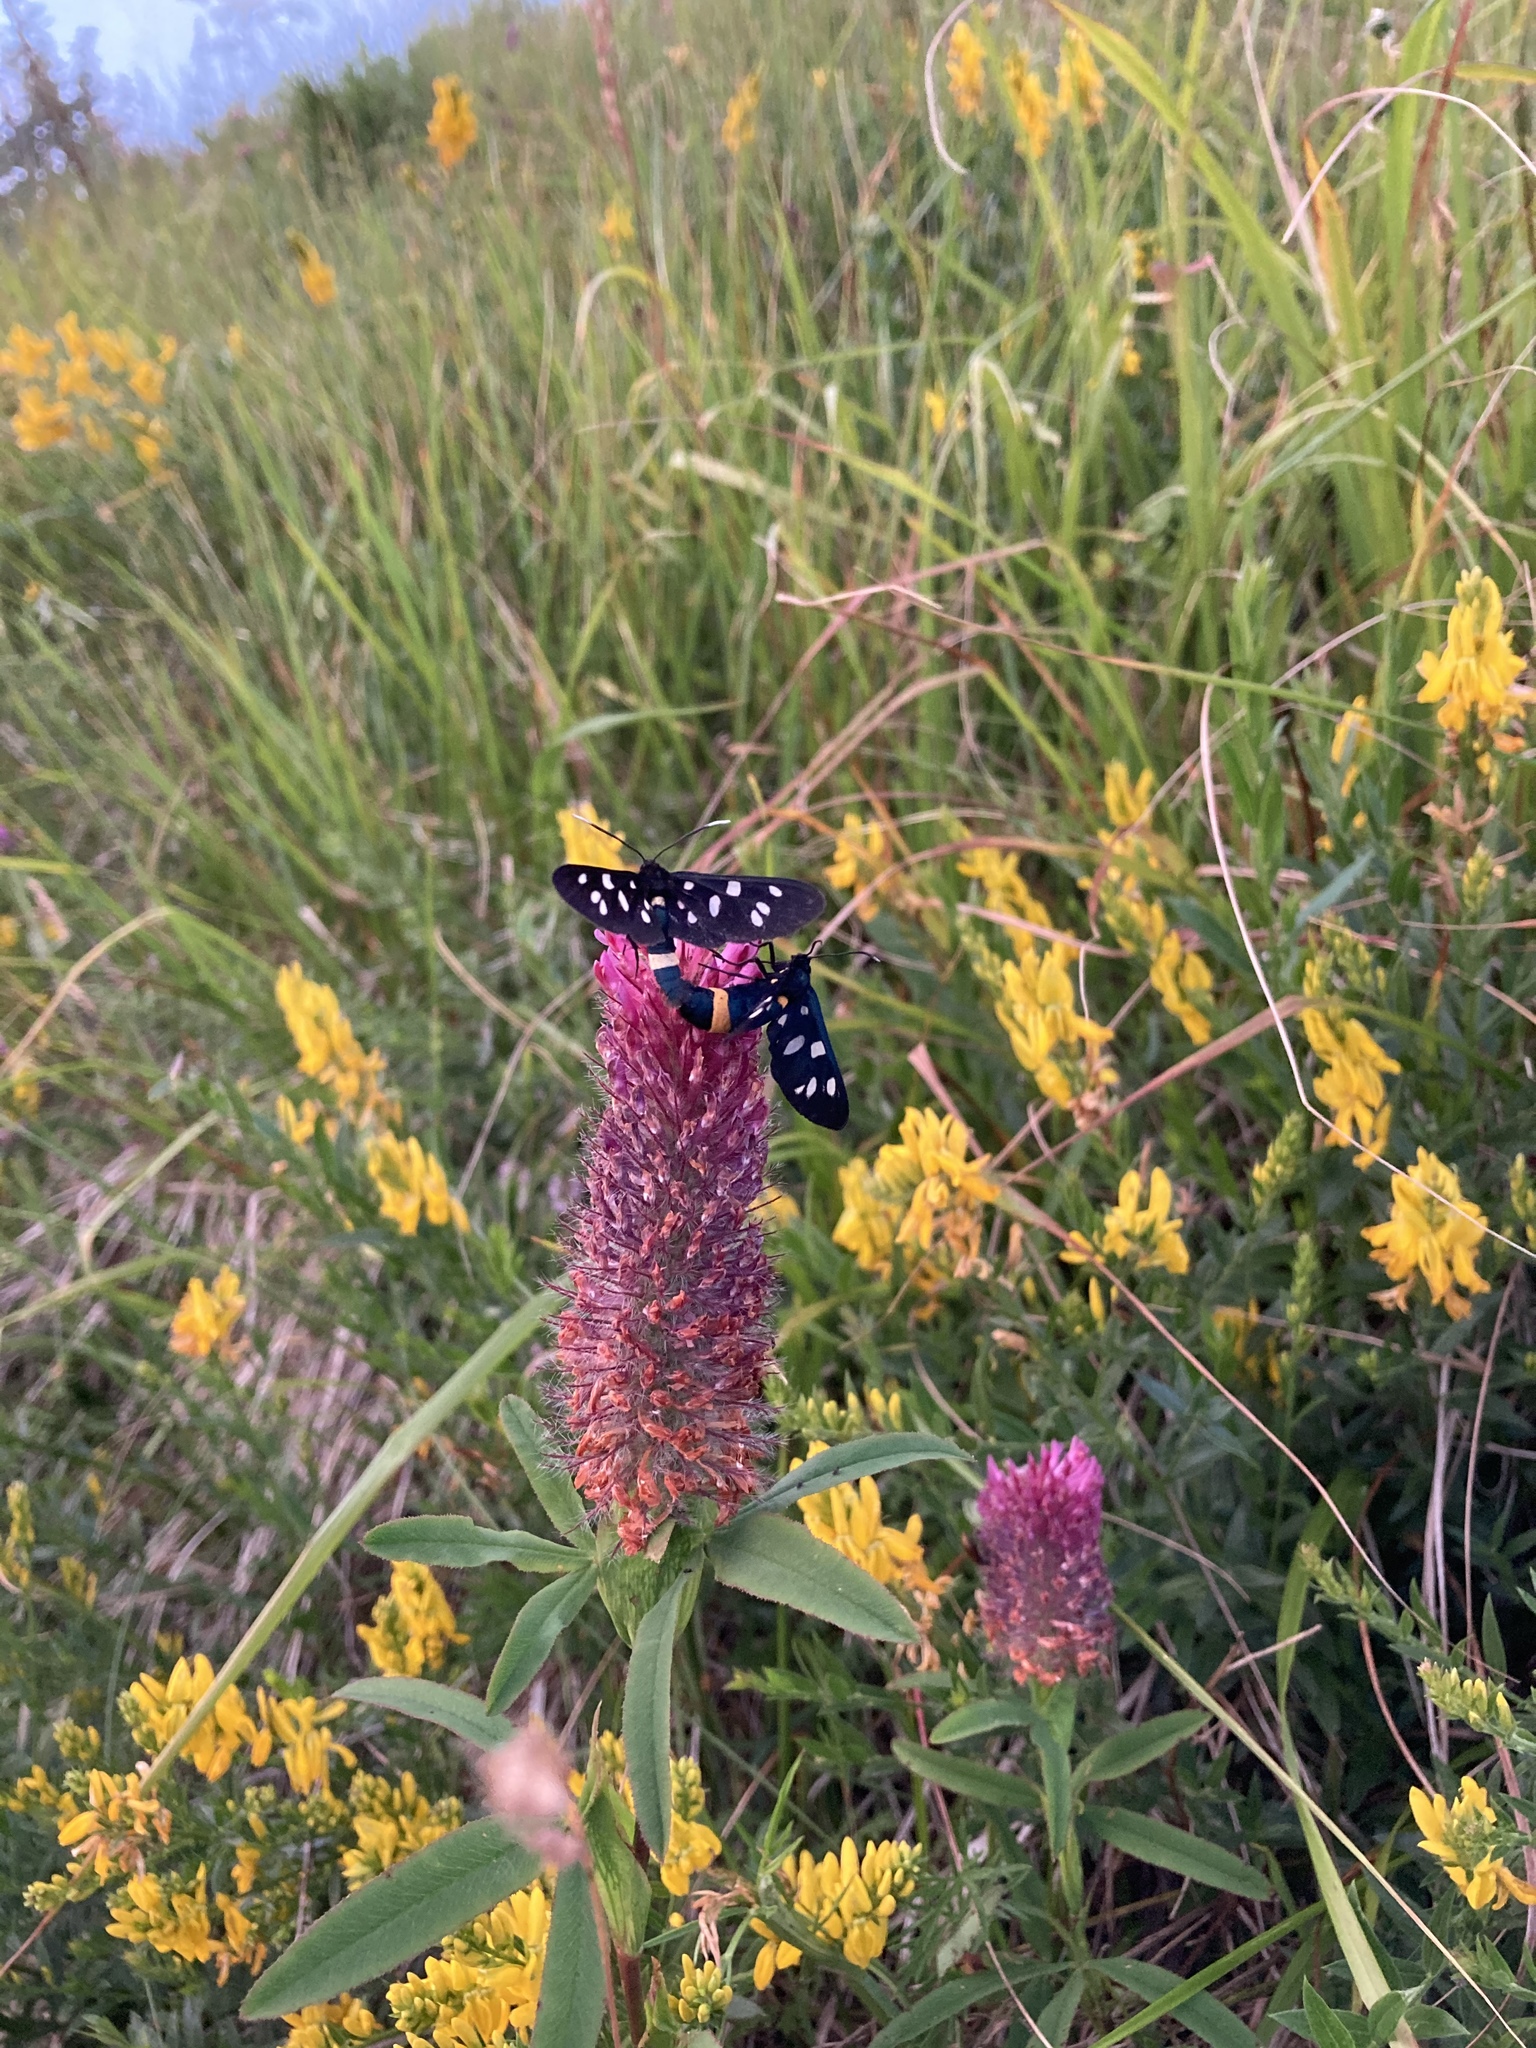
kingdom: Animalia
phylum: Arthropoda
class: Insecta
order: Lepidoptera
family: Erebidae
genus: Amata
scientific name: Amata phegea
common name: Nine-spotted
